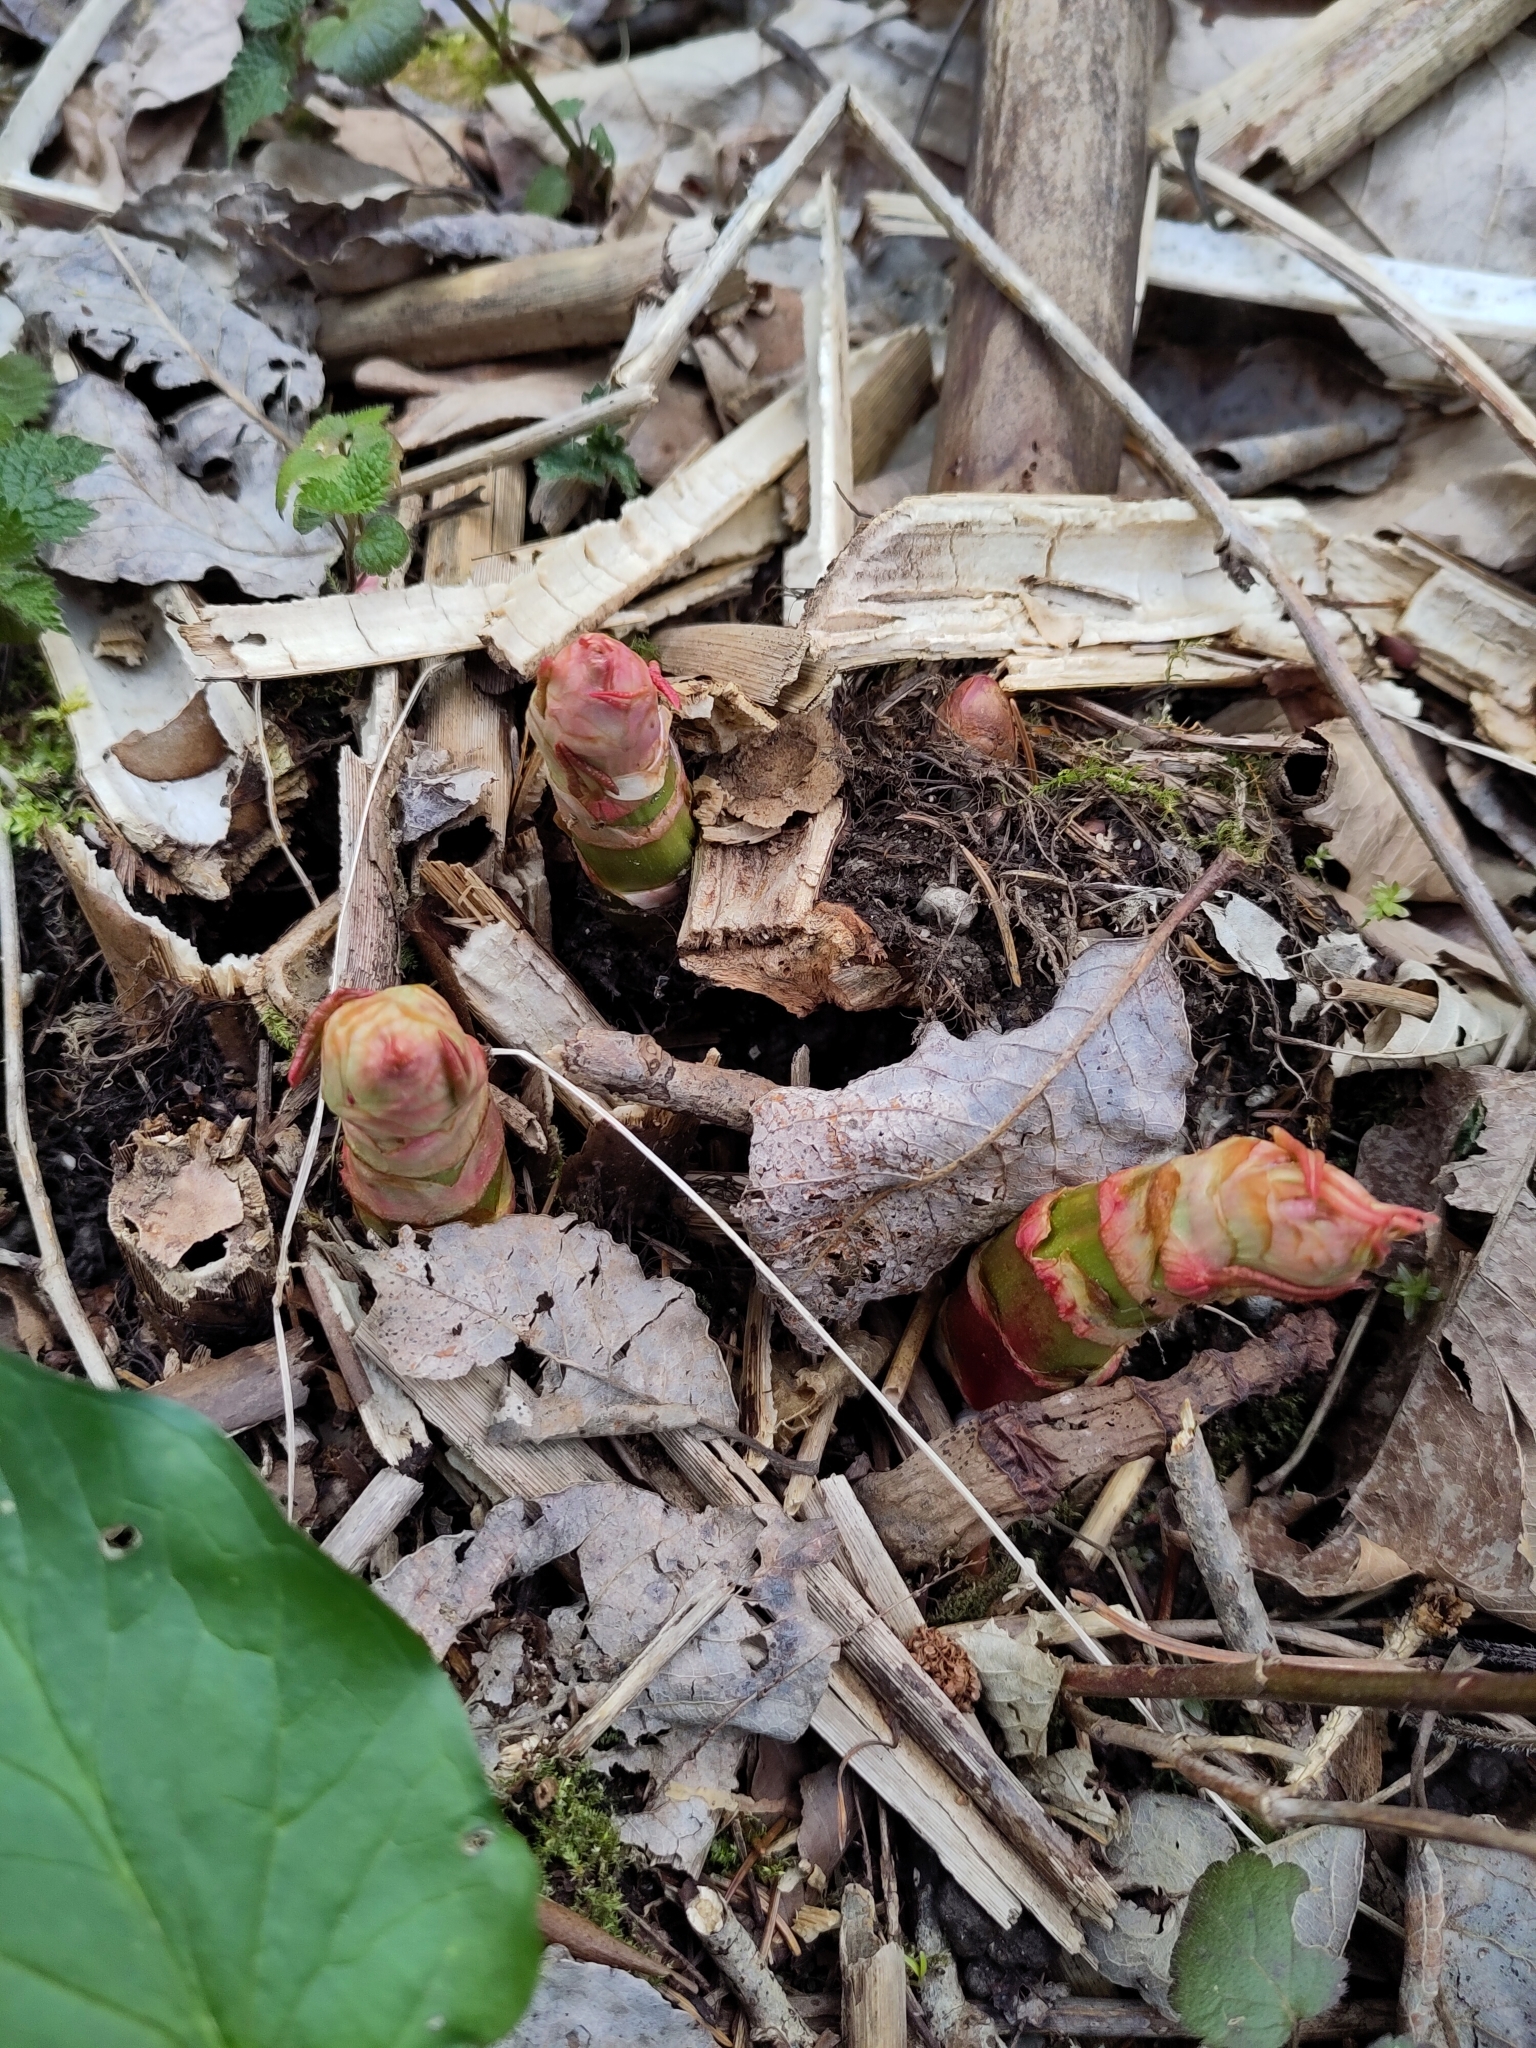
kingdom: Plantae
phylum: Tracheophyta
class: Magnoliopsida
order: Caryophyllales
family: Polygonaceae
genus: Reynoutria
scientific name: Reynoutria
